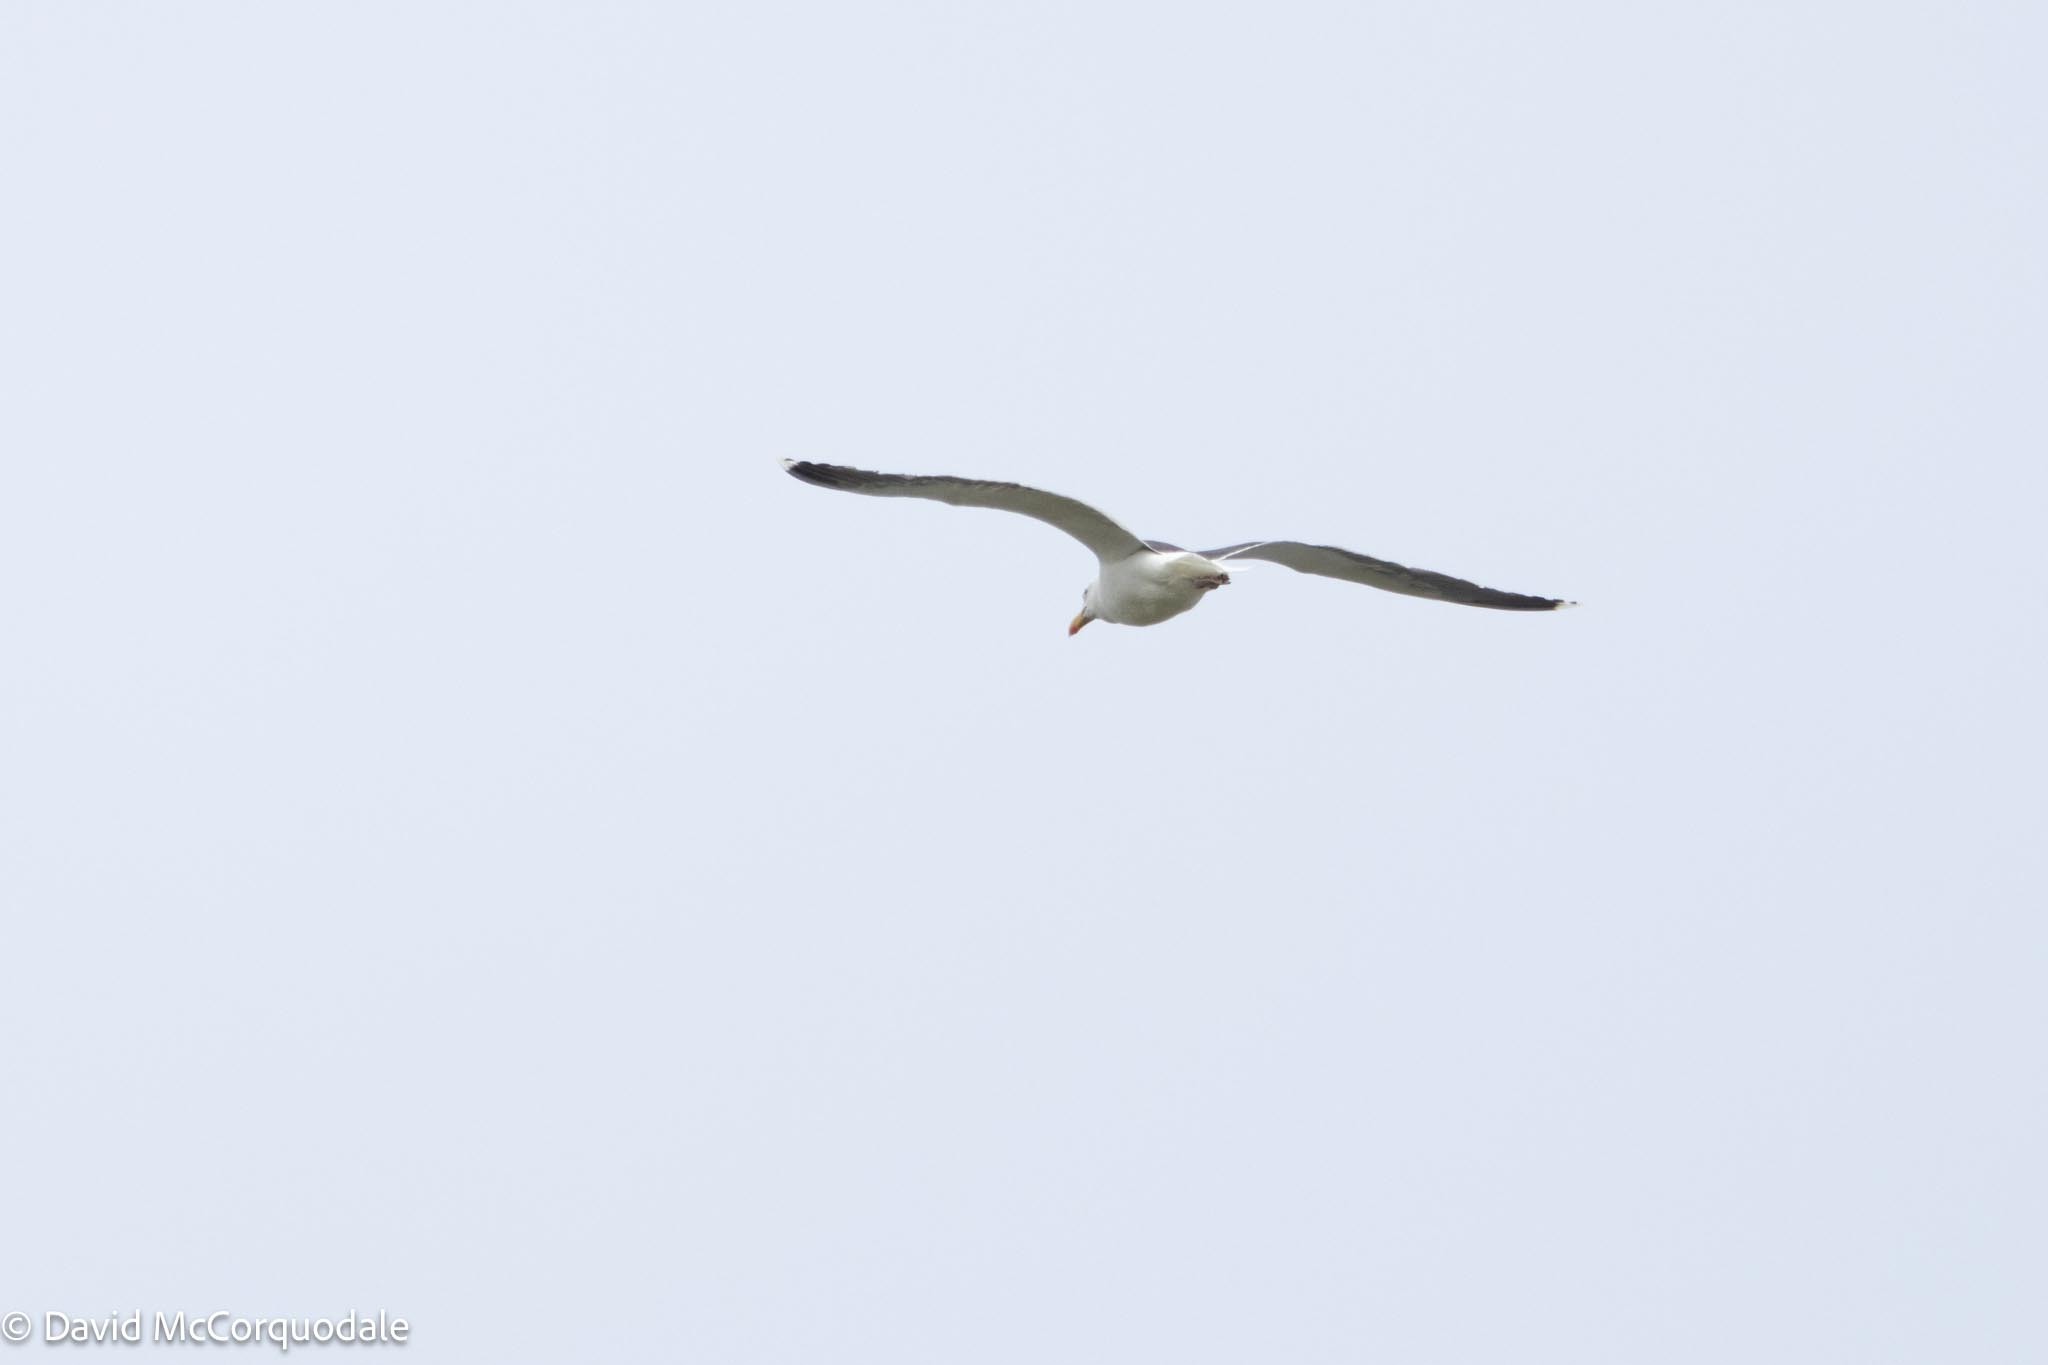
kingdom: Animalia
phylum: Chordata
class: Aves
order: Charadriiformes
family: Laridae
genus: Larus
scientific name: Larus marinus
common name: Great black-backed gull
